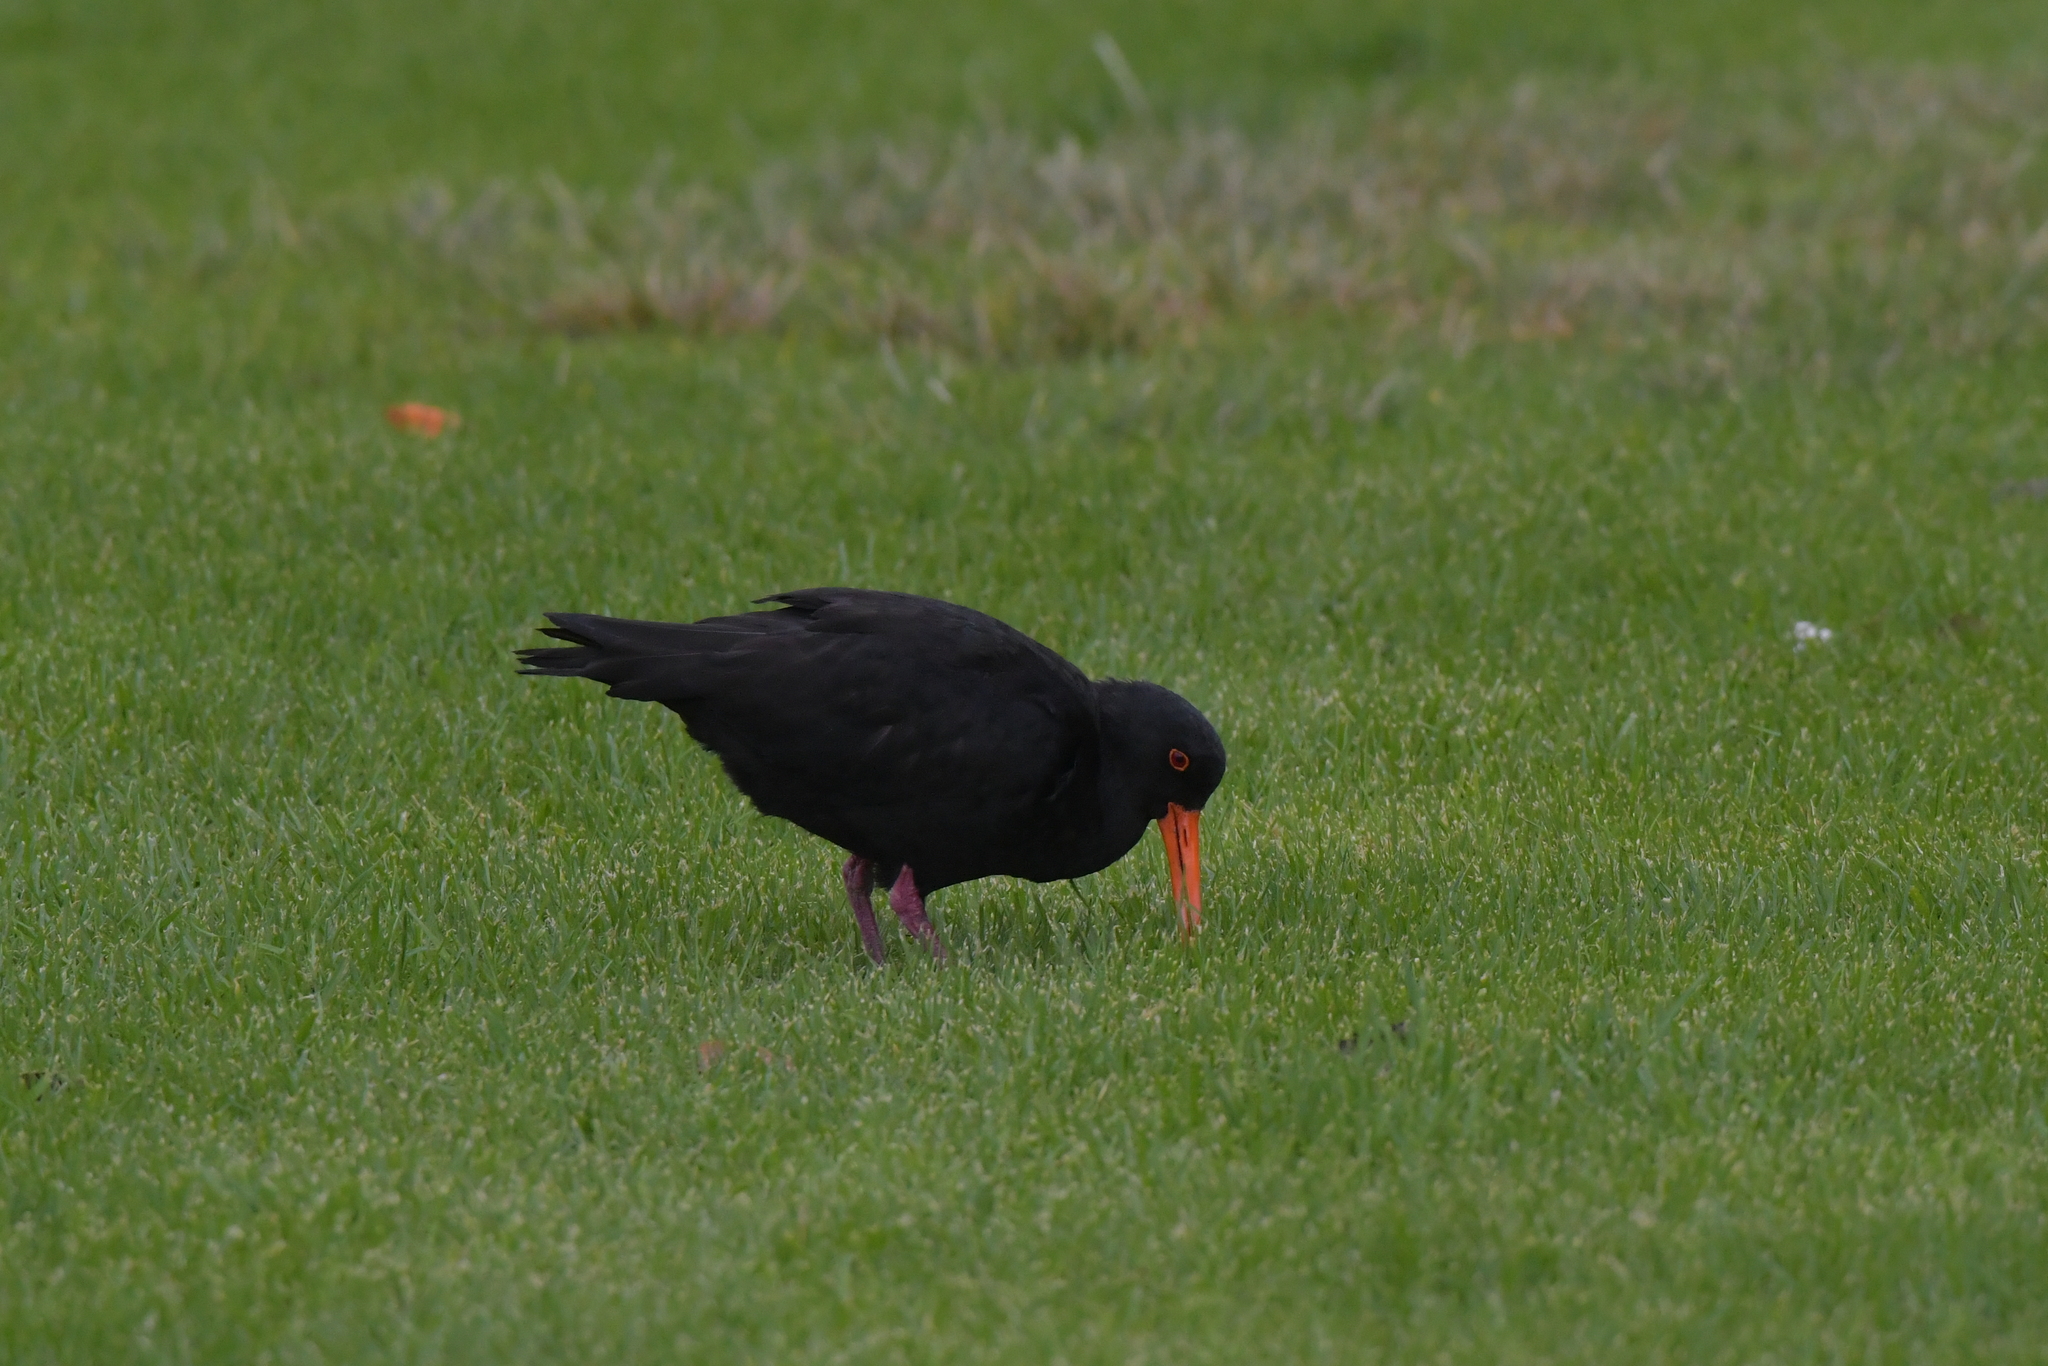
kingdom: Animalia
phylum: Chordata
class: Aves
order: Charadriiformes
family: Haematopodidae
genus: Haematopus
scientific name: Haematopus unicolor
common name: Variable oystercatcher
